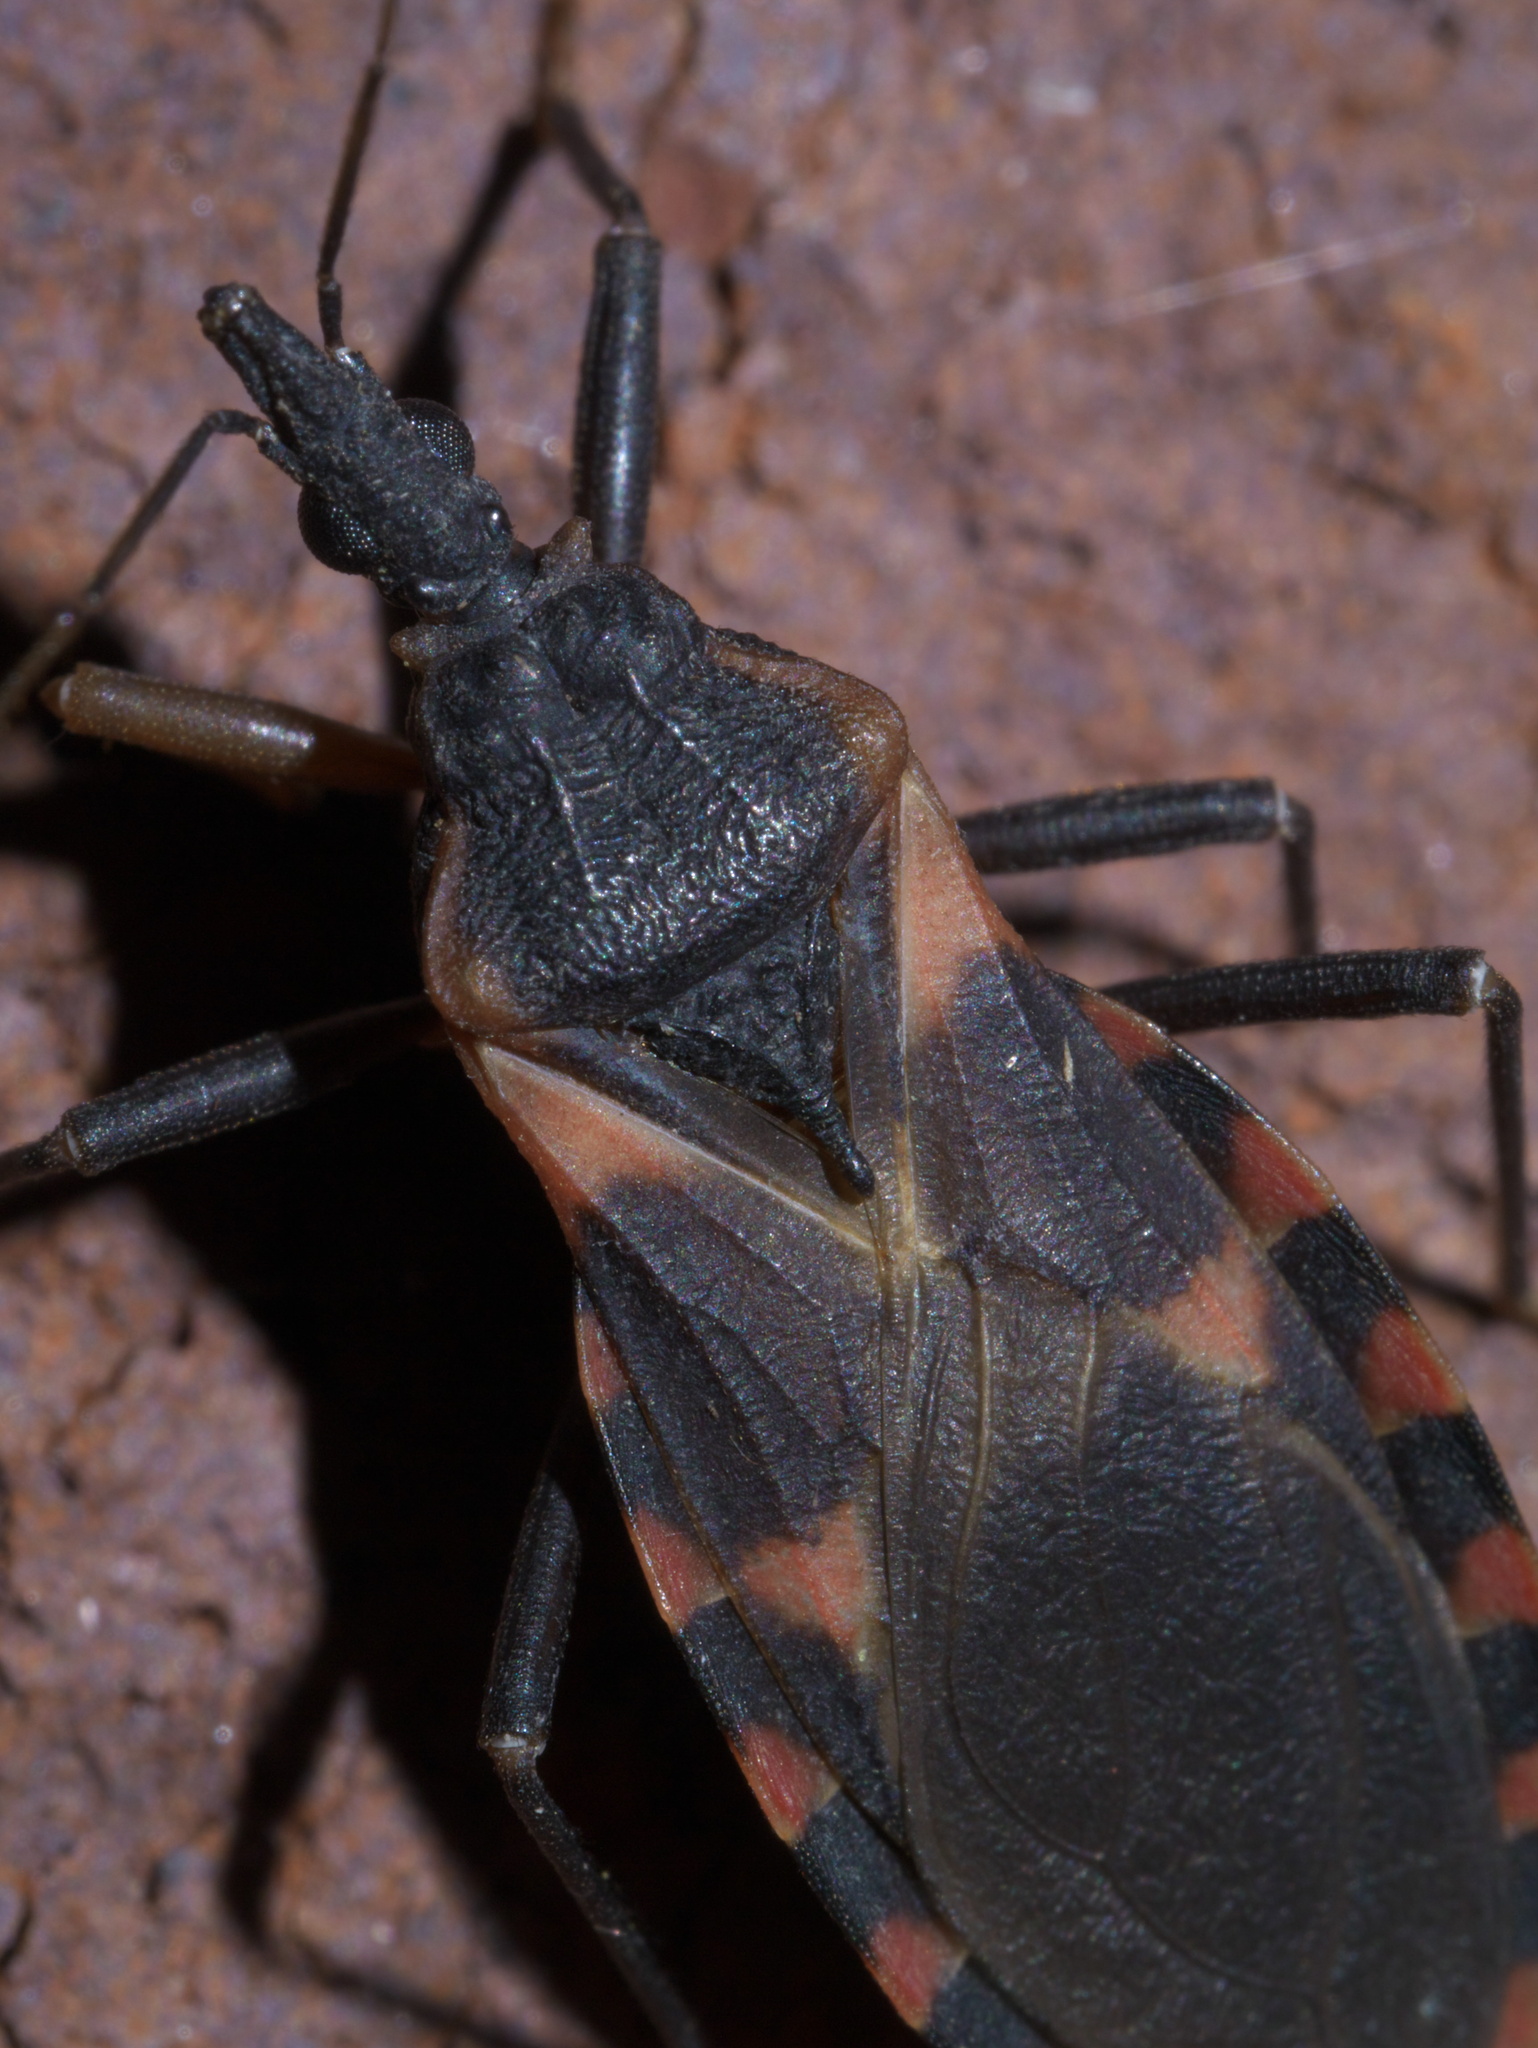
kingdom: Animalia
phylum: Arthropoda
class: Insecta
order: Hemiptera
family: Reduviidae
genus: Triatoma
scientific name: Triatoma sanguisuga
